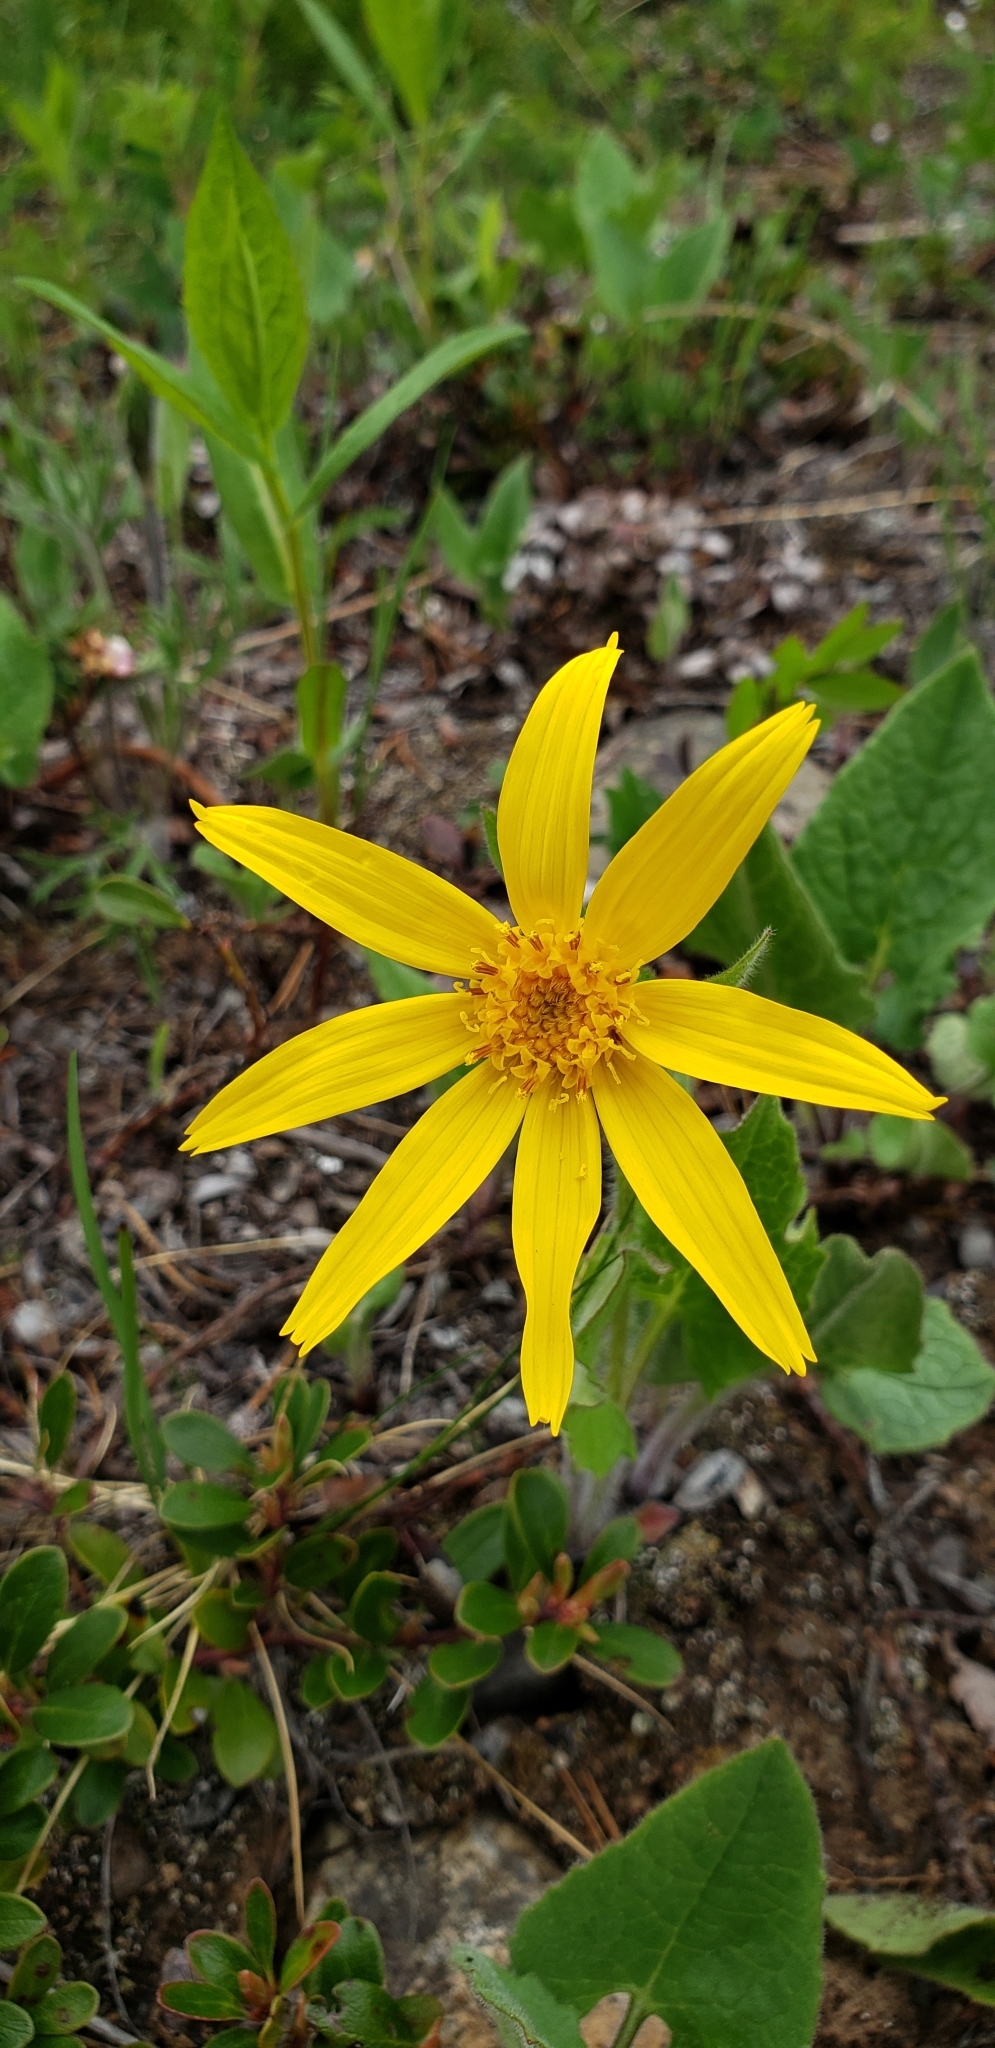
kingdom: Plantae
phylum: Tracheophyta
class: Magnoliopsida
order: Asterales
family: Asteraceae
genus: Arnica
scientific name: Arnica cordifolia
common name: Heart-leaf arnica
